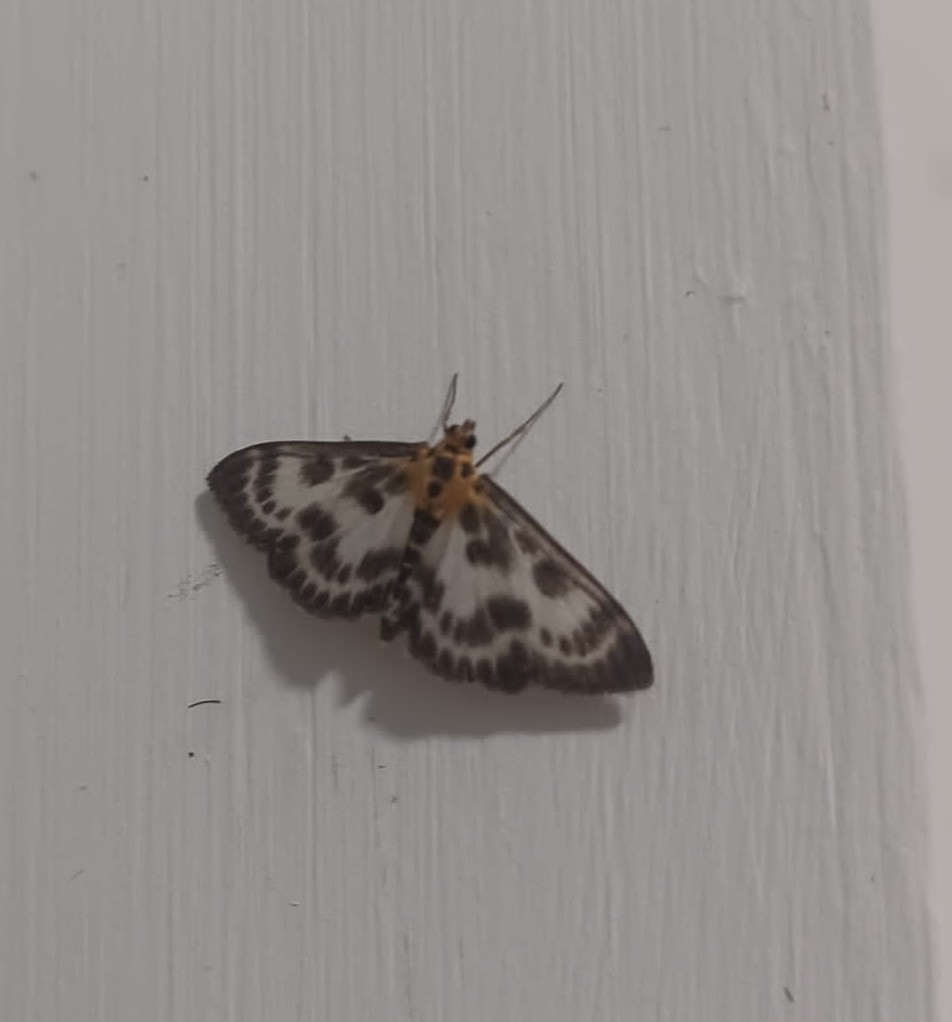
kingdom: Animalia
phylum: Arthropoda
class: Insecta
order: Lepidoptera
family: Crambidae
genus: Anania
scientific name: Anania hortulata
